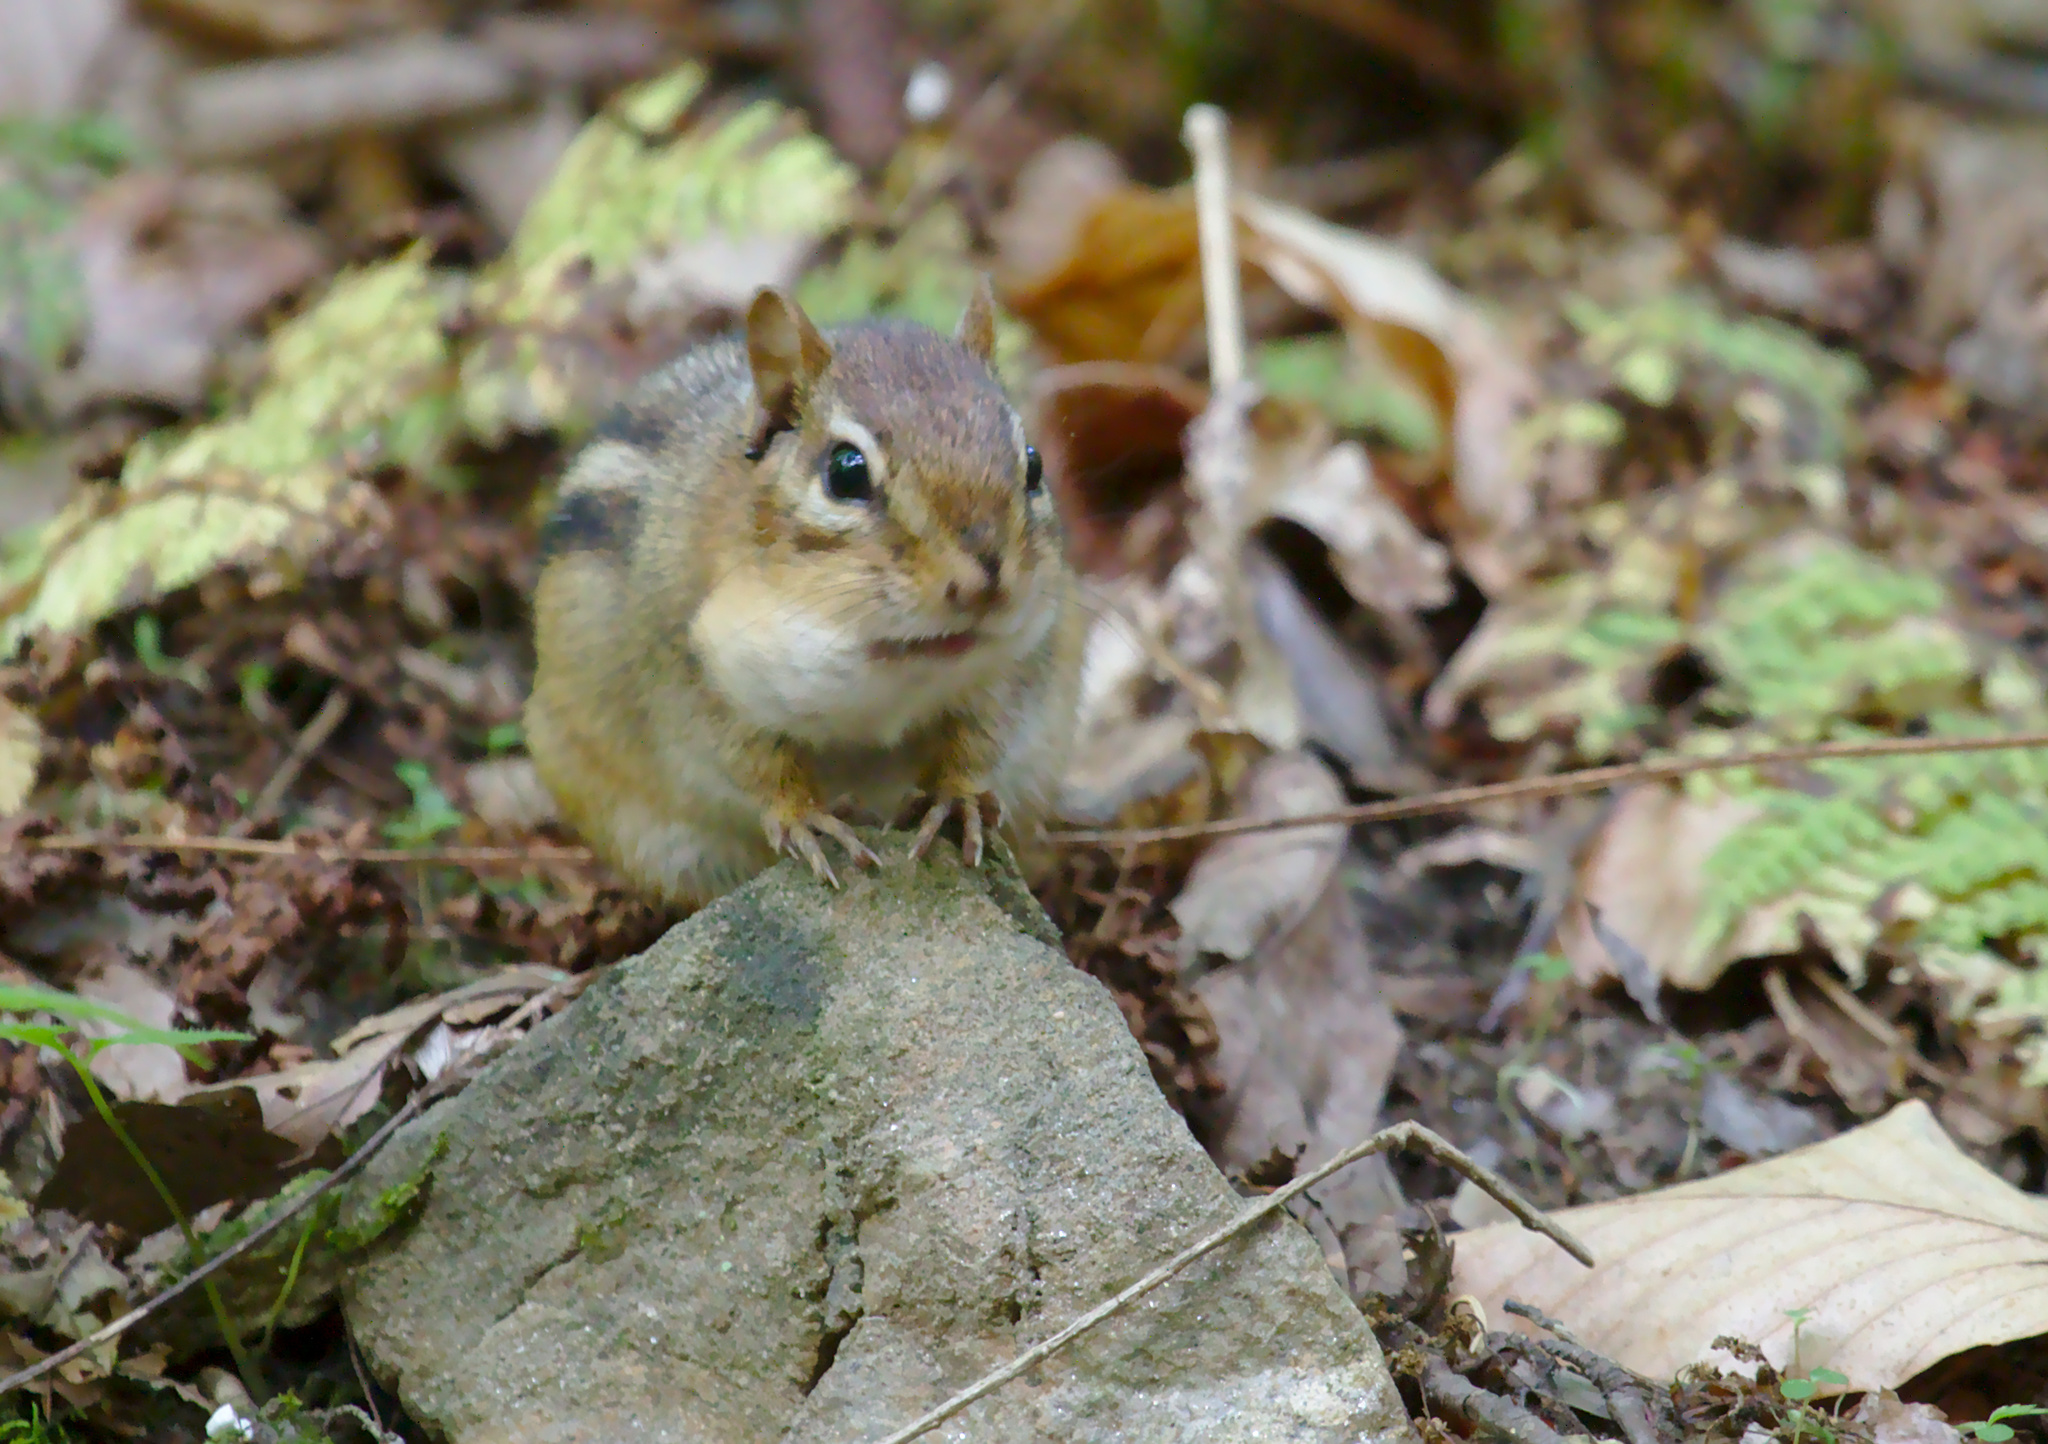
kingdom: Animalia
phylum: Chordata
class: Mammalia
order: Rodentia
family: Sciuridae
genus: Tamias
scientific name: Tamias striatus
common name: Eastern chipmunk
